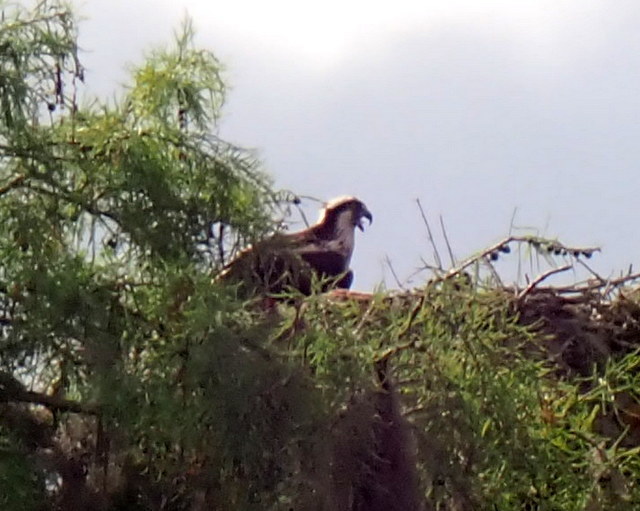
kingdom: Animalia
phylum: Chordata
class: Aves
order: Accipitriformes
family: Pandionidae
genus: Pandion
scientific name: Pandion haliaetus
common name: Osprey
